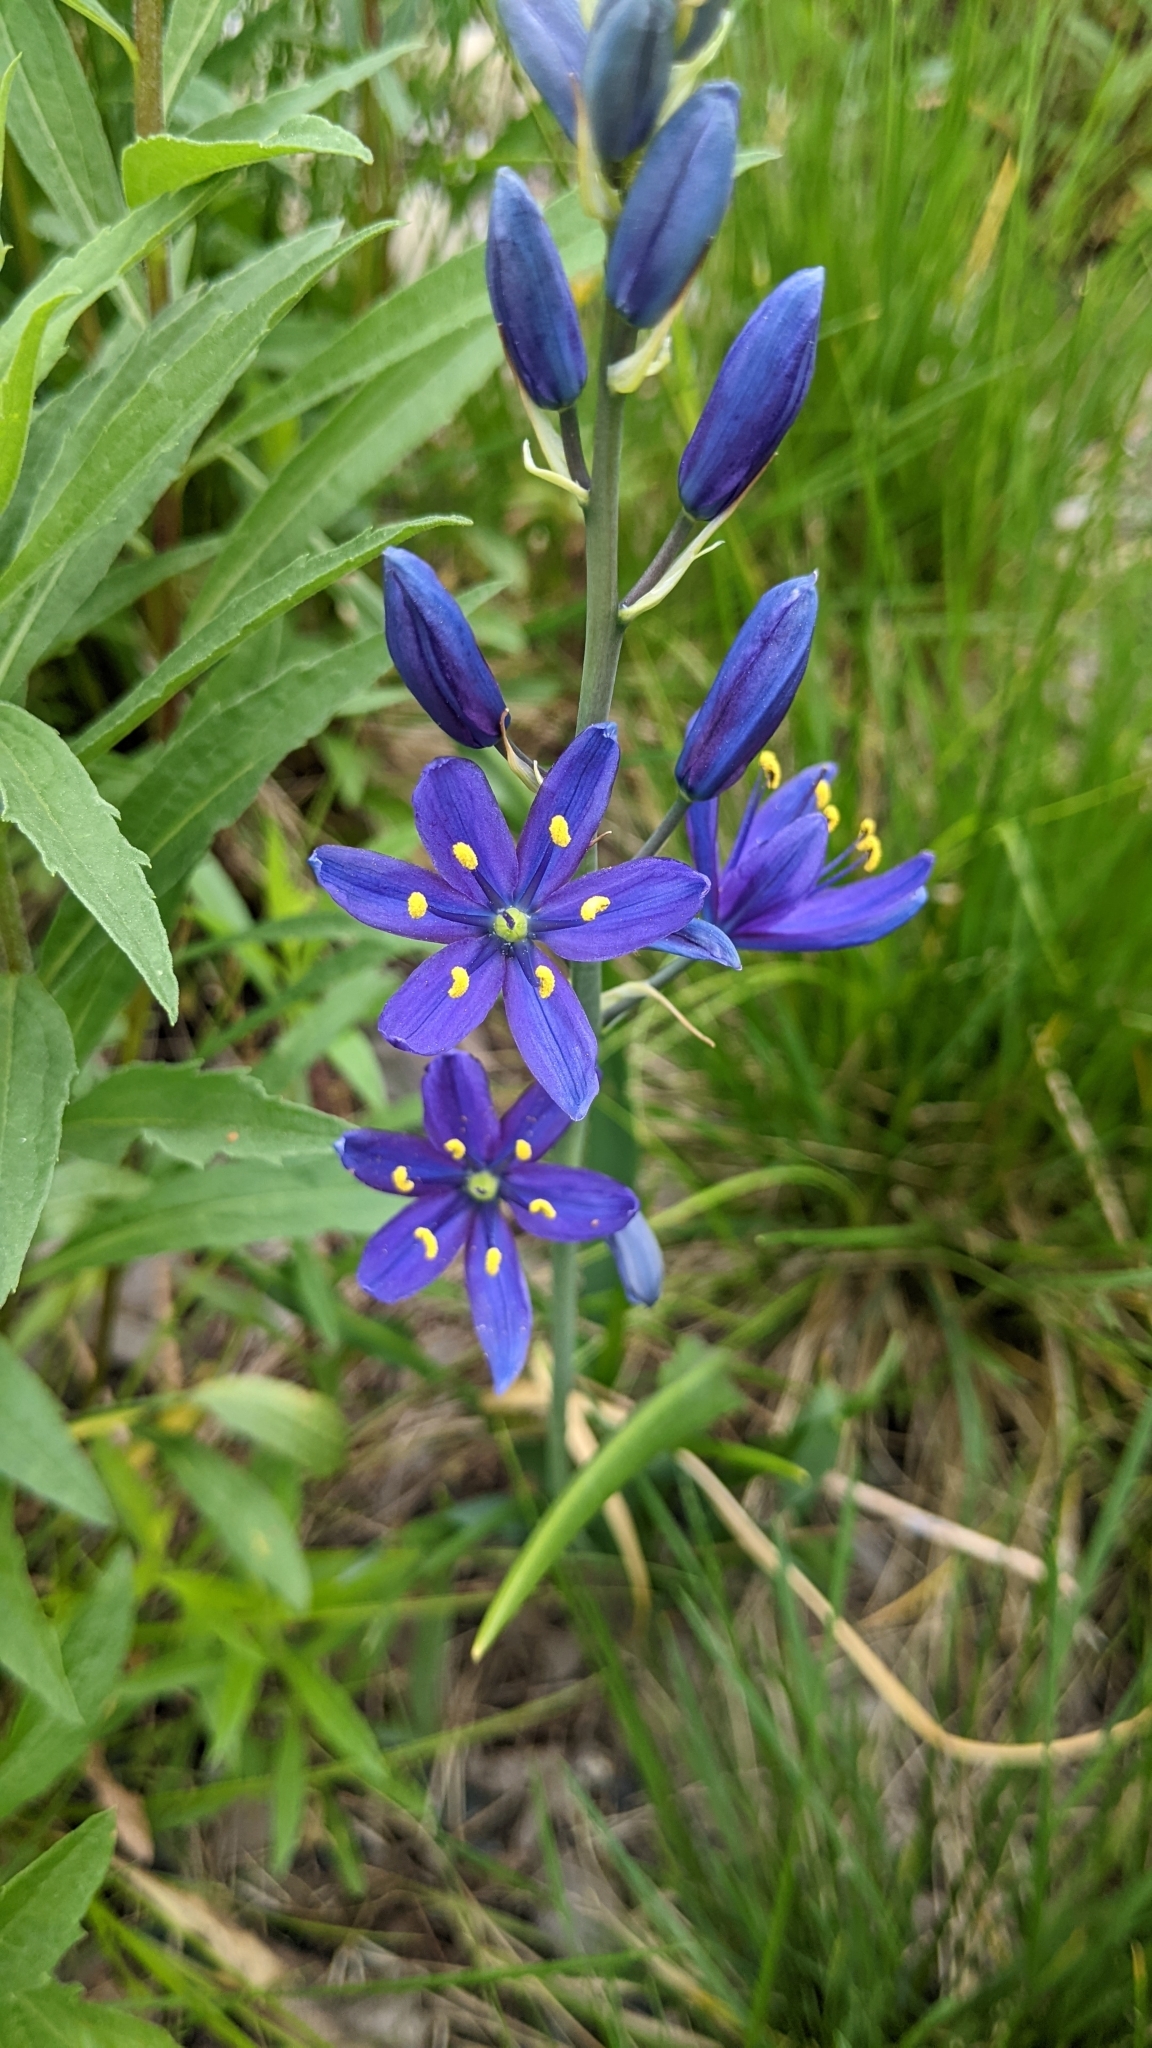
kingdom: Plantae
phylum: Tracheophyta
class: Liliopsida
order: Asparagales
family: Asparagaceae
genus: Camassia
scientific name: Camassia leichtlinii
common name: Leichtlin's camas
